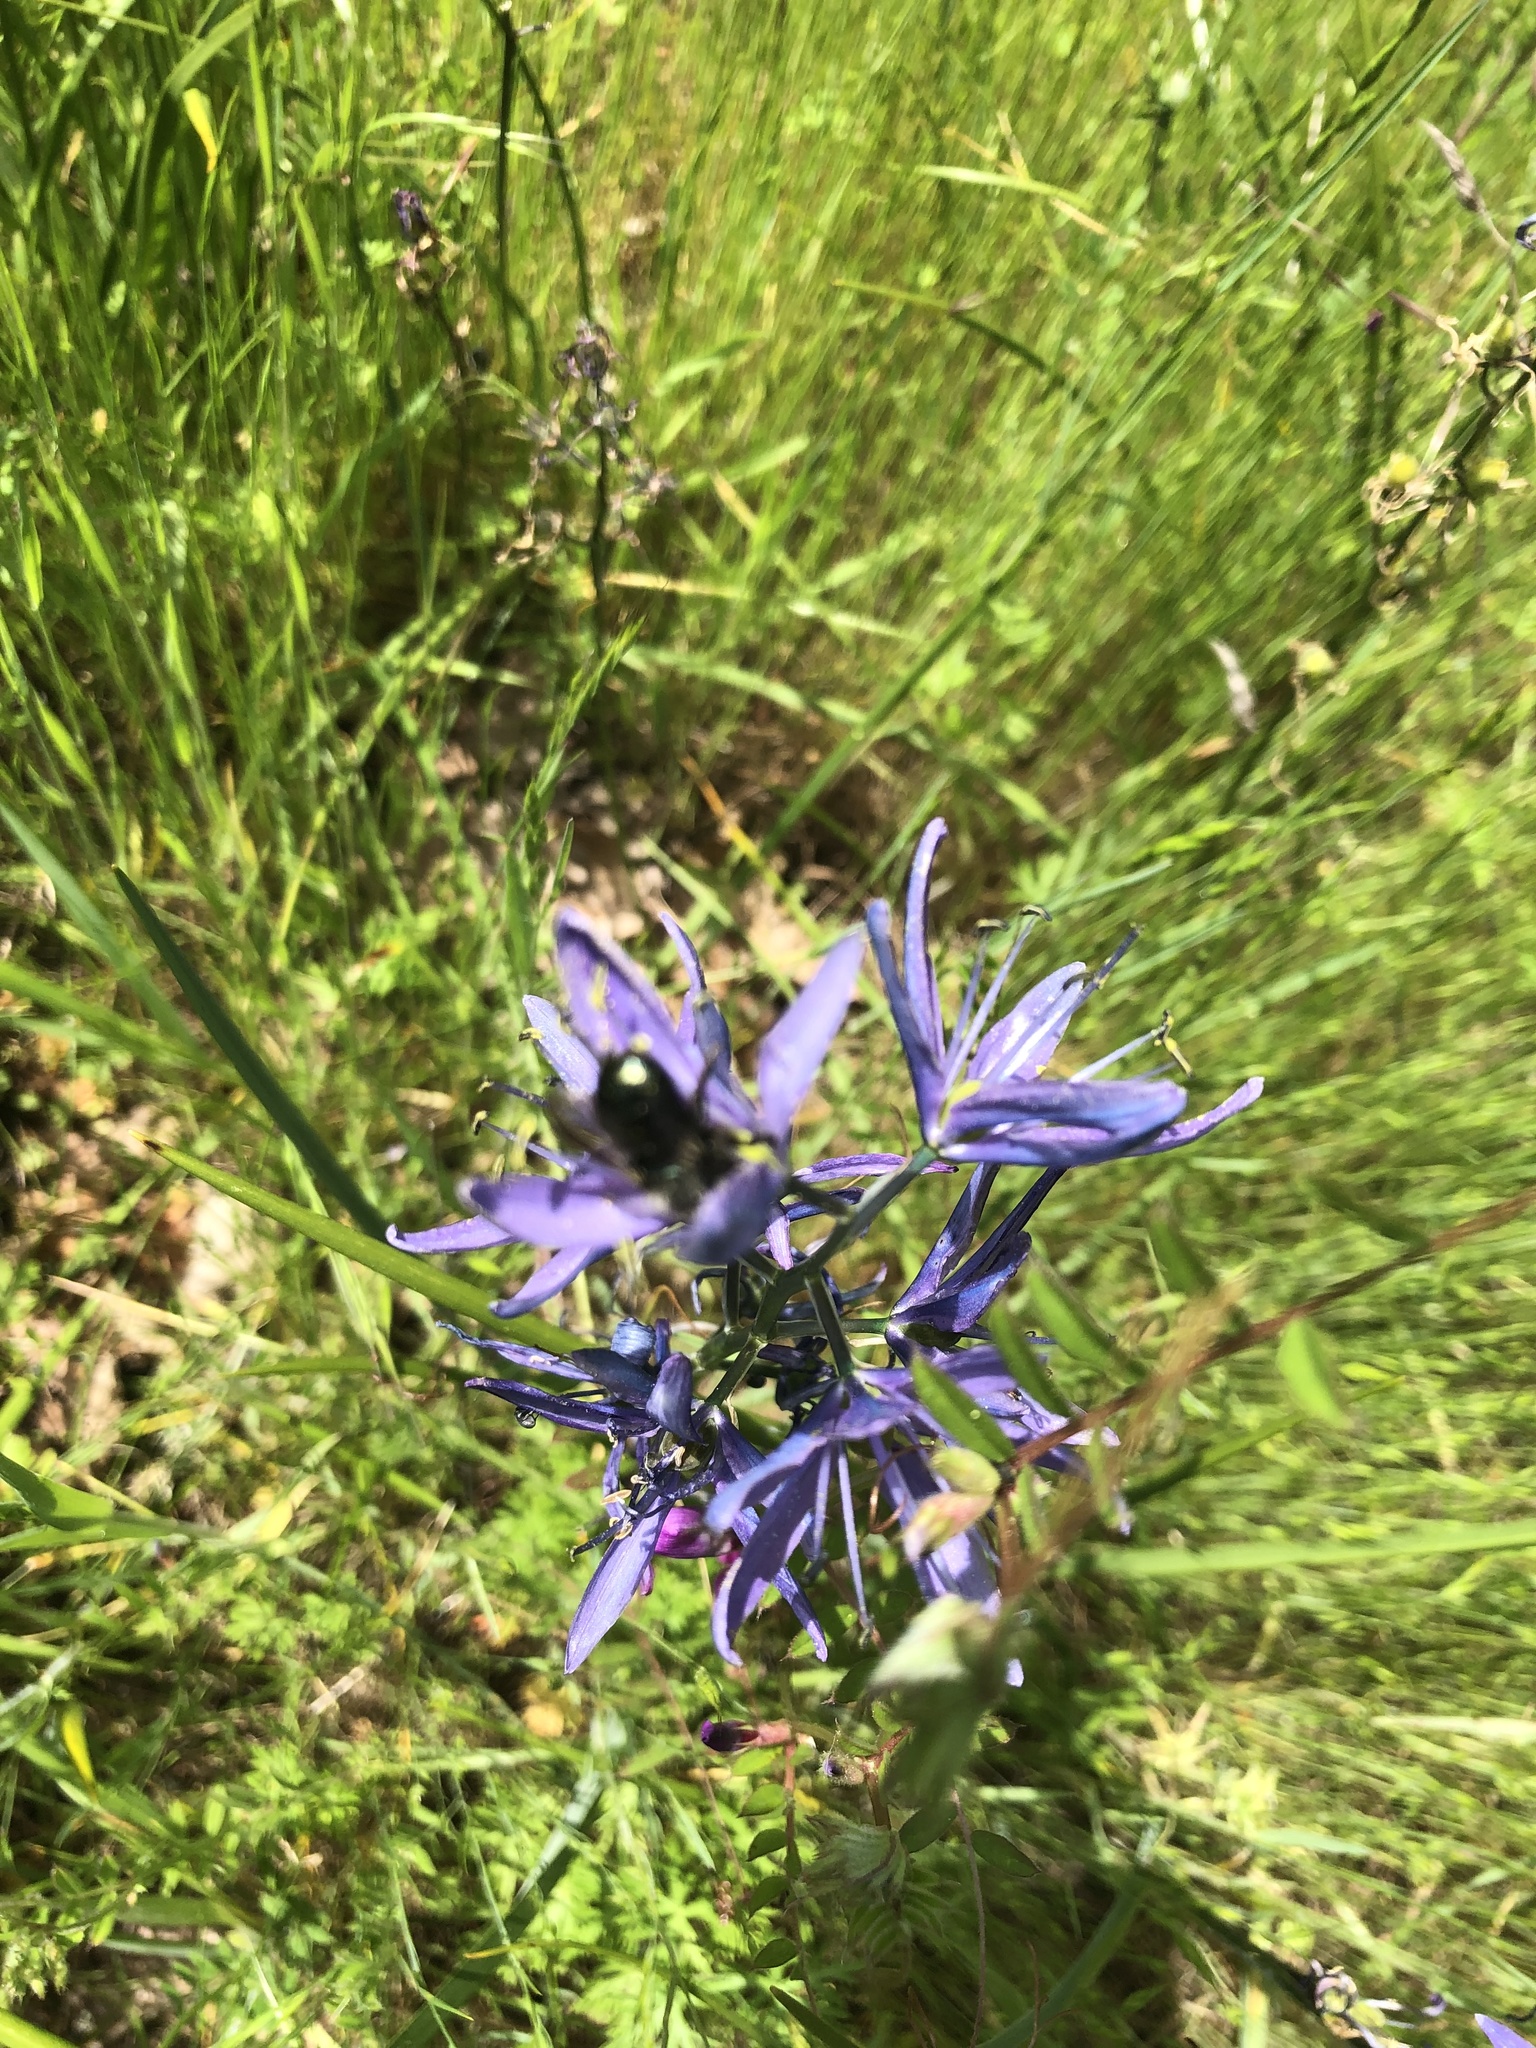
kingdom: Animalia
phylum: Arthropoda
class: Insecta
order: Hymenoptera
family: Megachilidae
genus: Osmia
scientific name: Osmia lignaria
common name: Blue orchard bee
